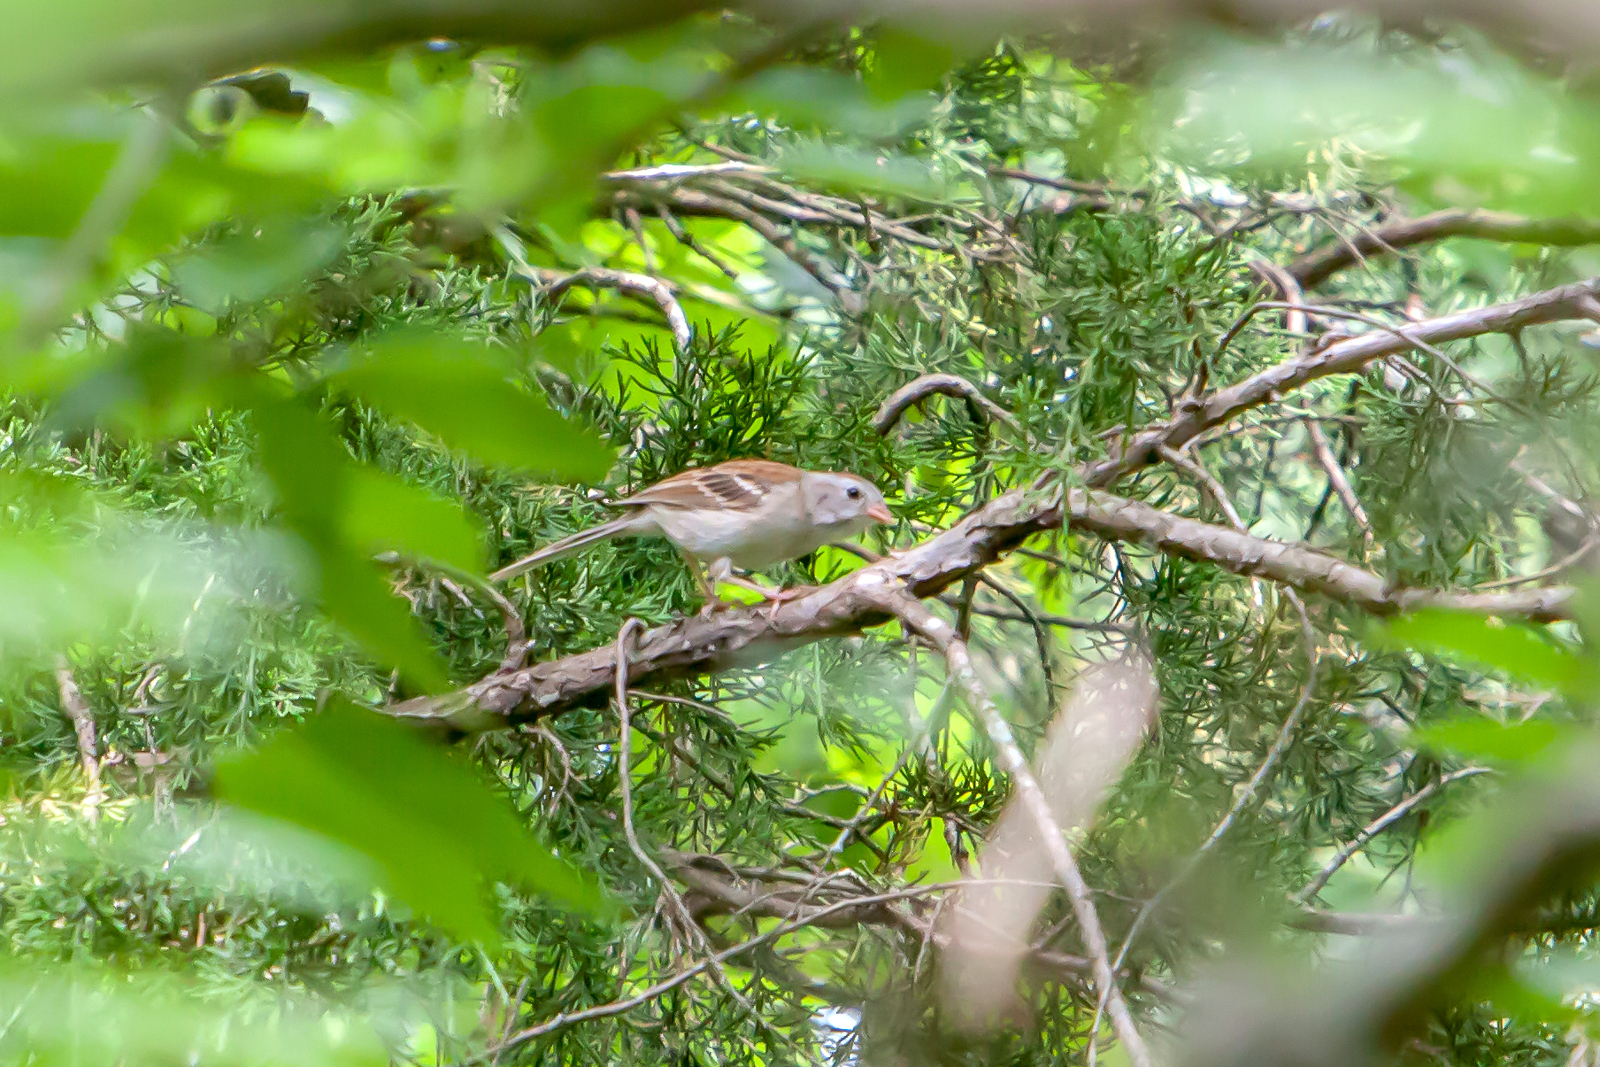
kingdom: Animalia
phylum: Chordata
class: Aves
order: Passeriformes
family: Passerellidae
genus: Spizella
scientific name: Spizella pusilla
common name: Field sparrow
